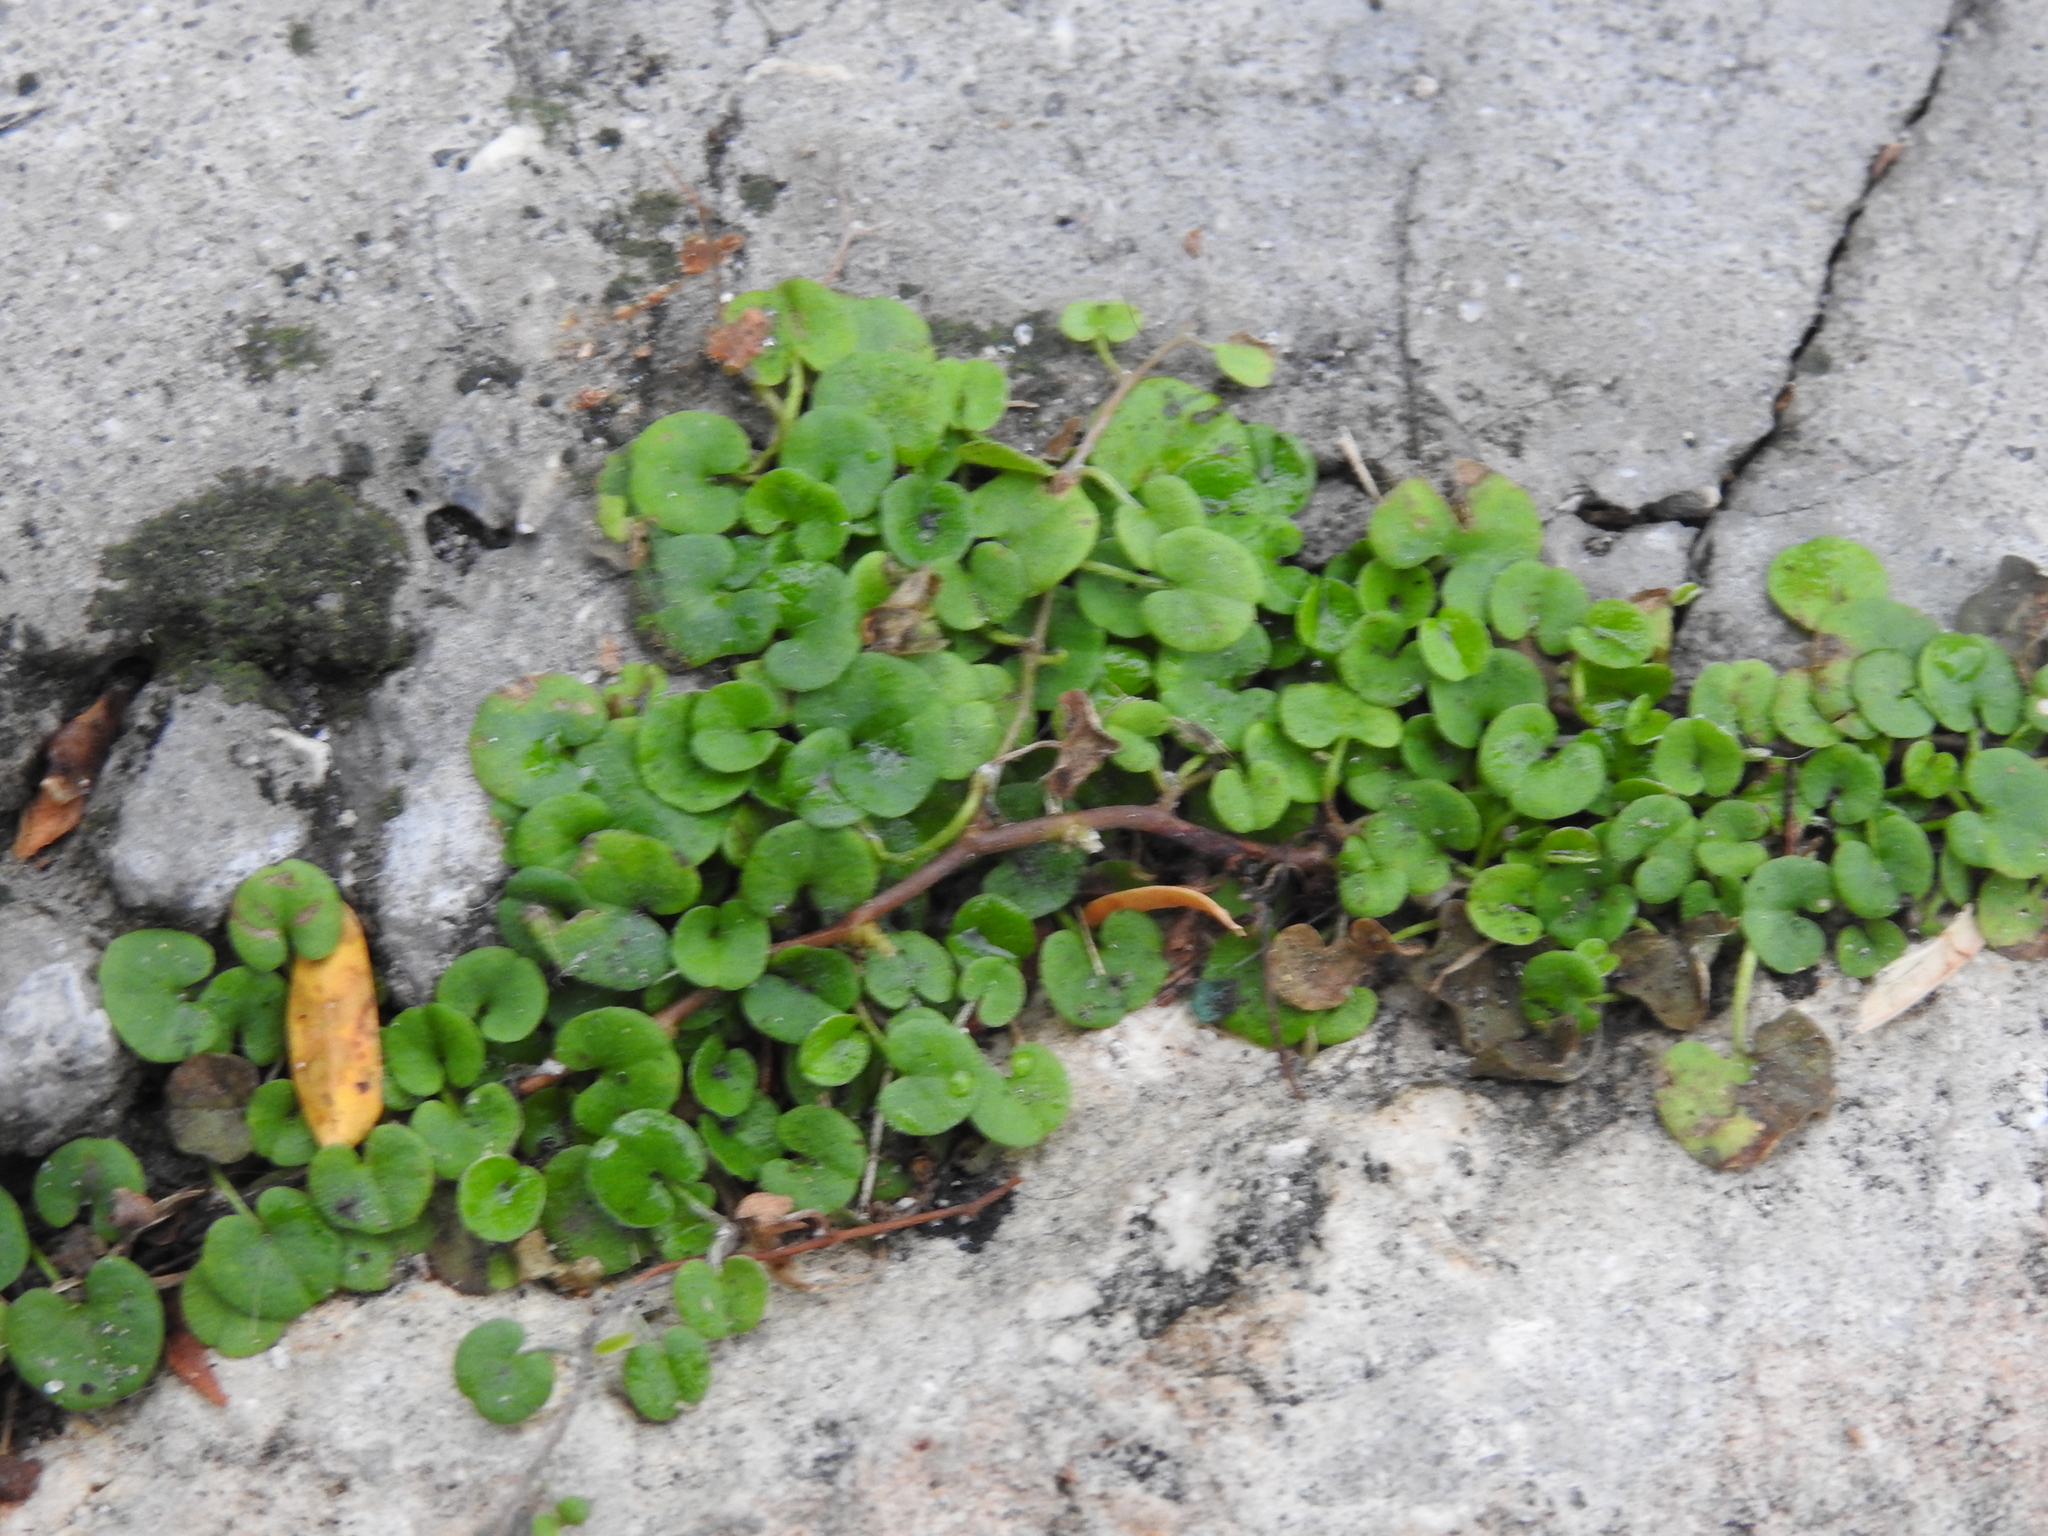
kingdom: Plantae
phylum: Tracheophyta
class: Magnoliopsida
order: Solanales
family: Convolvulaceae
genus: Dichondra
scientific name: Dichondra carolinensis
